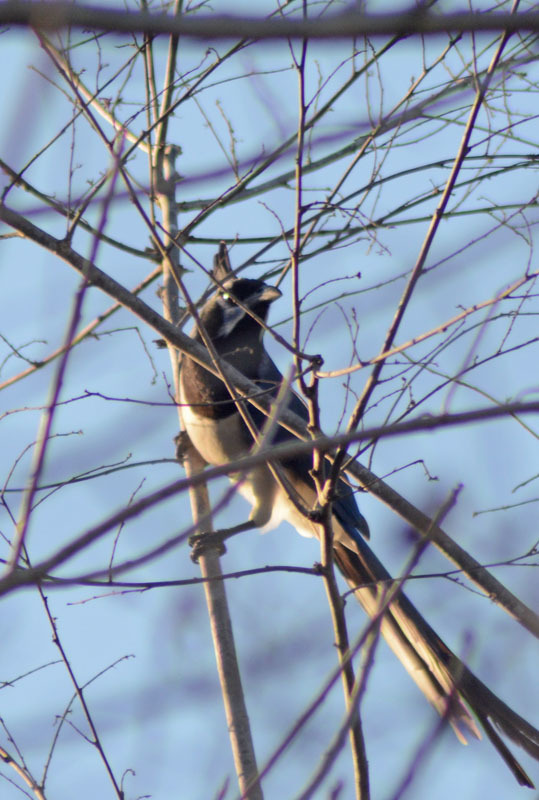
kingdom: Animalia
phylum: Chordata
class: Aves
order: Passeriformes
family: Corvidae
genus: Calocitta
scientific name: Calocitta colliei
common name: Black-throated magpie-jay
